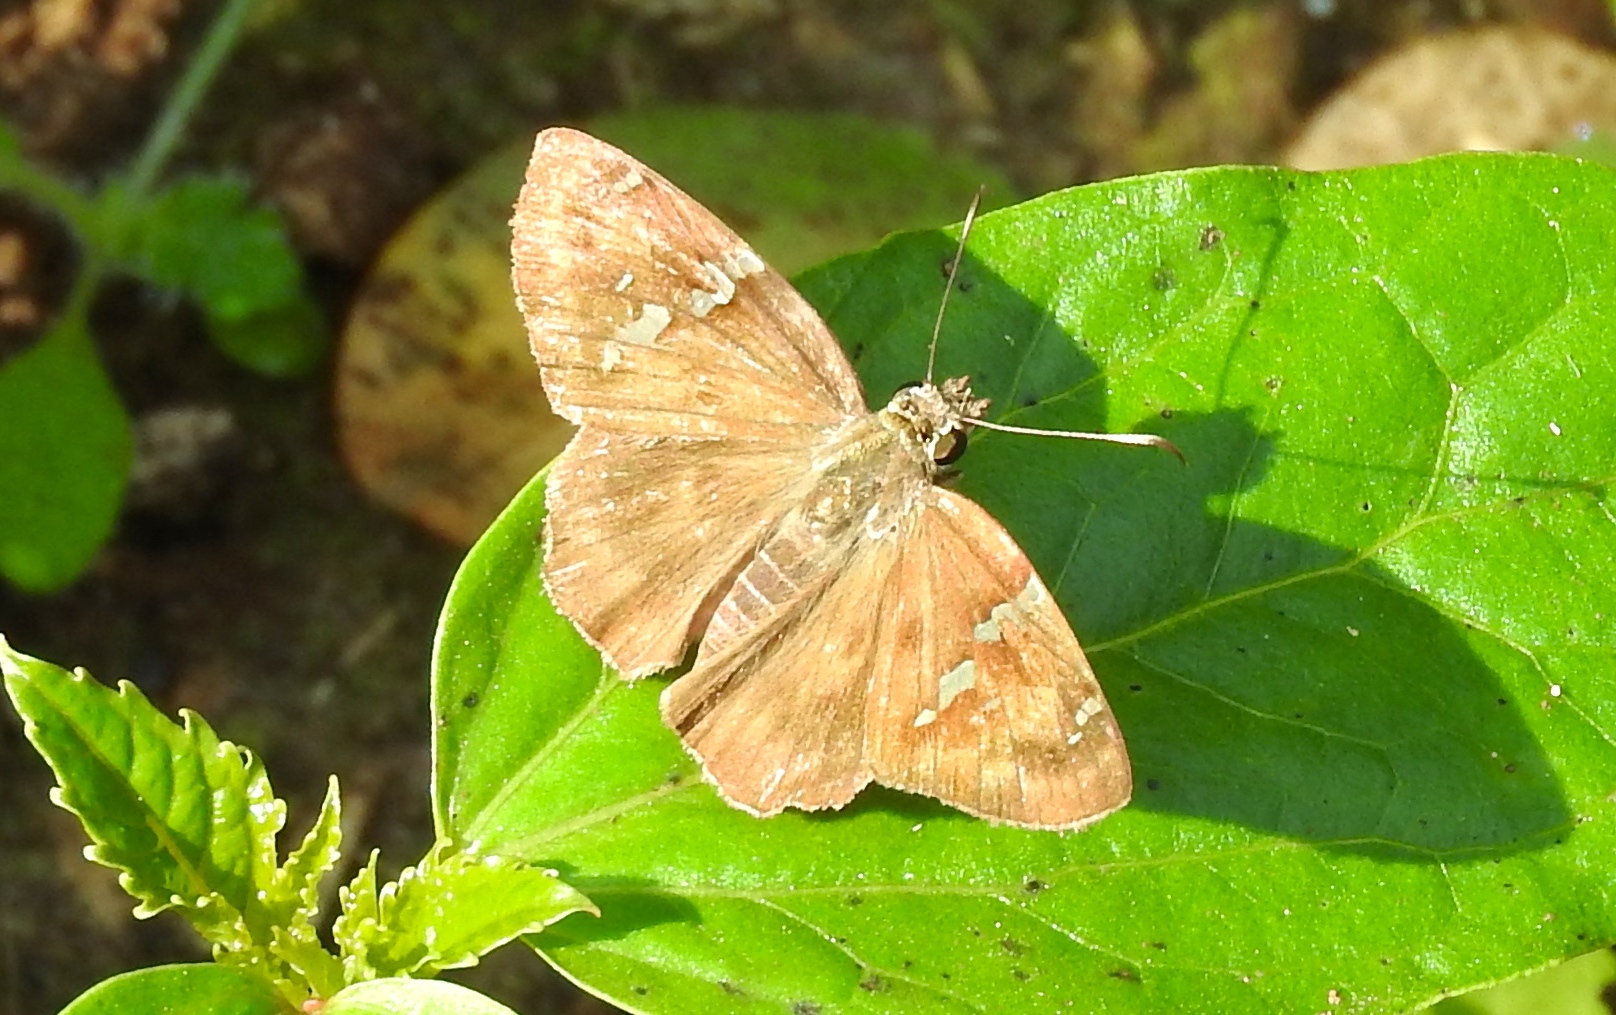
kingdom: Animalia
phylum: Arthropoda
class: Insecta
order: Lepidoptera
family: Hesperiidae
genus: Autochton
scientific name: Autochton potrillo
